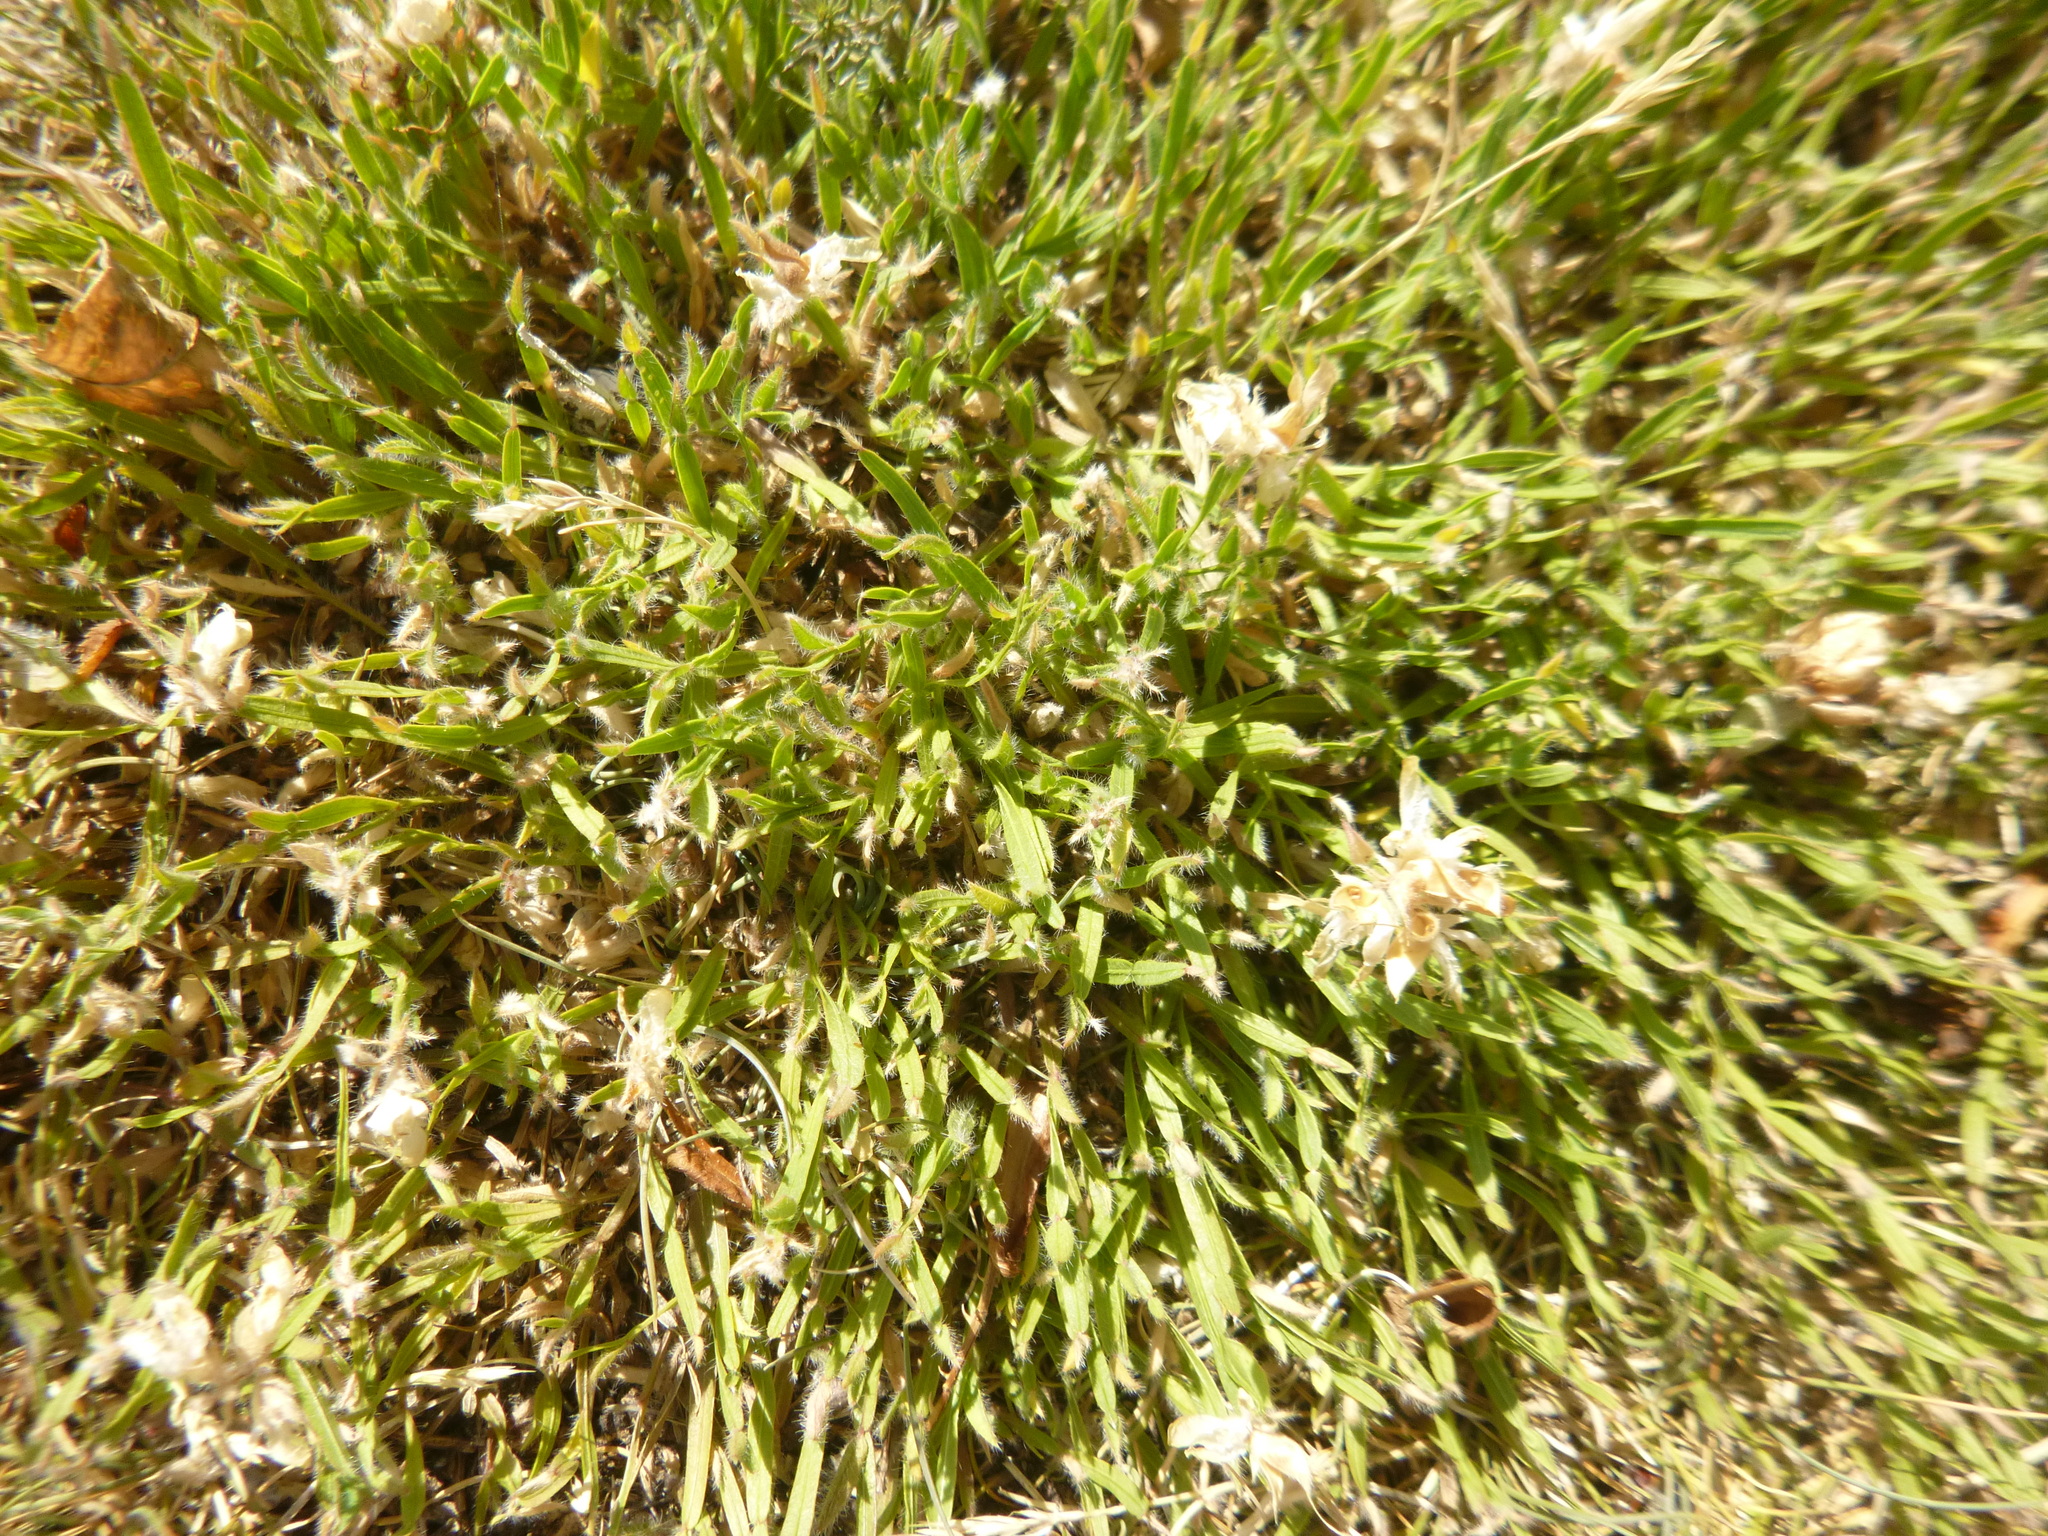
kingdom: Plantae
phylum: Tracheophyta
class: Magnoliopsida
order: Fabales
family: Fabaceae
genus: Genista
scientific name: Genista sagittalis
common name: Winged greenweed
